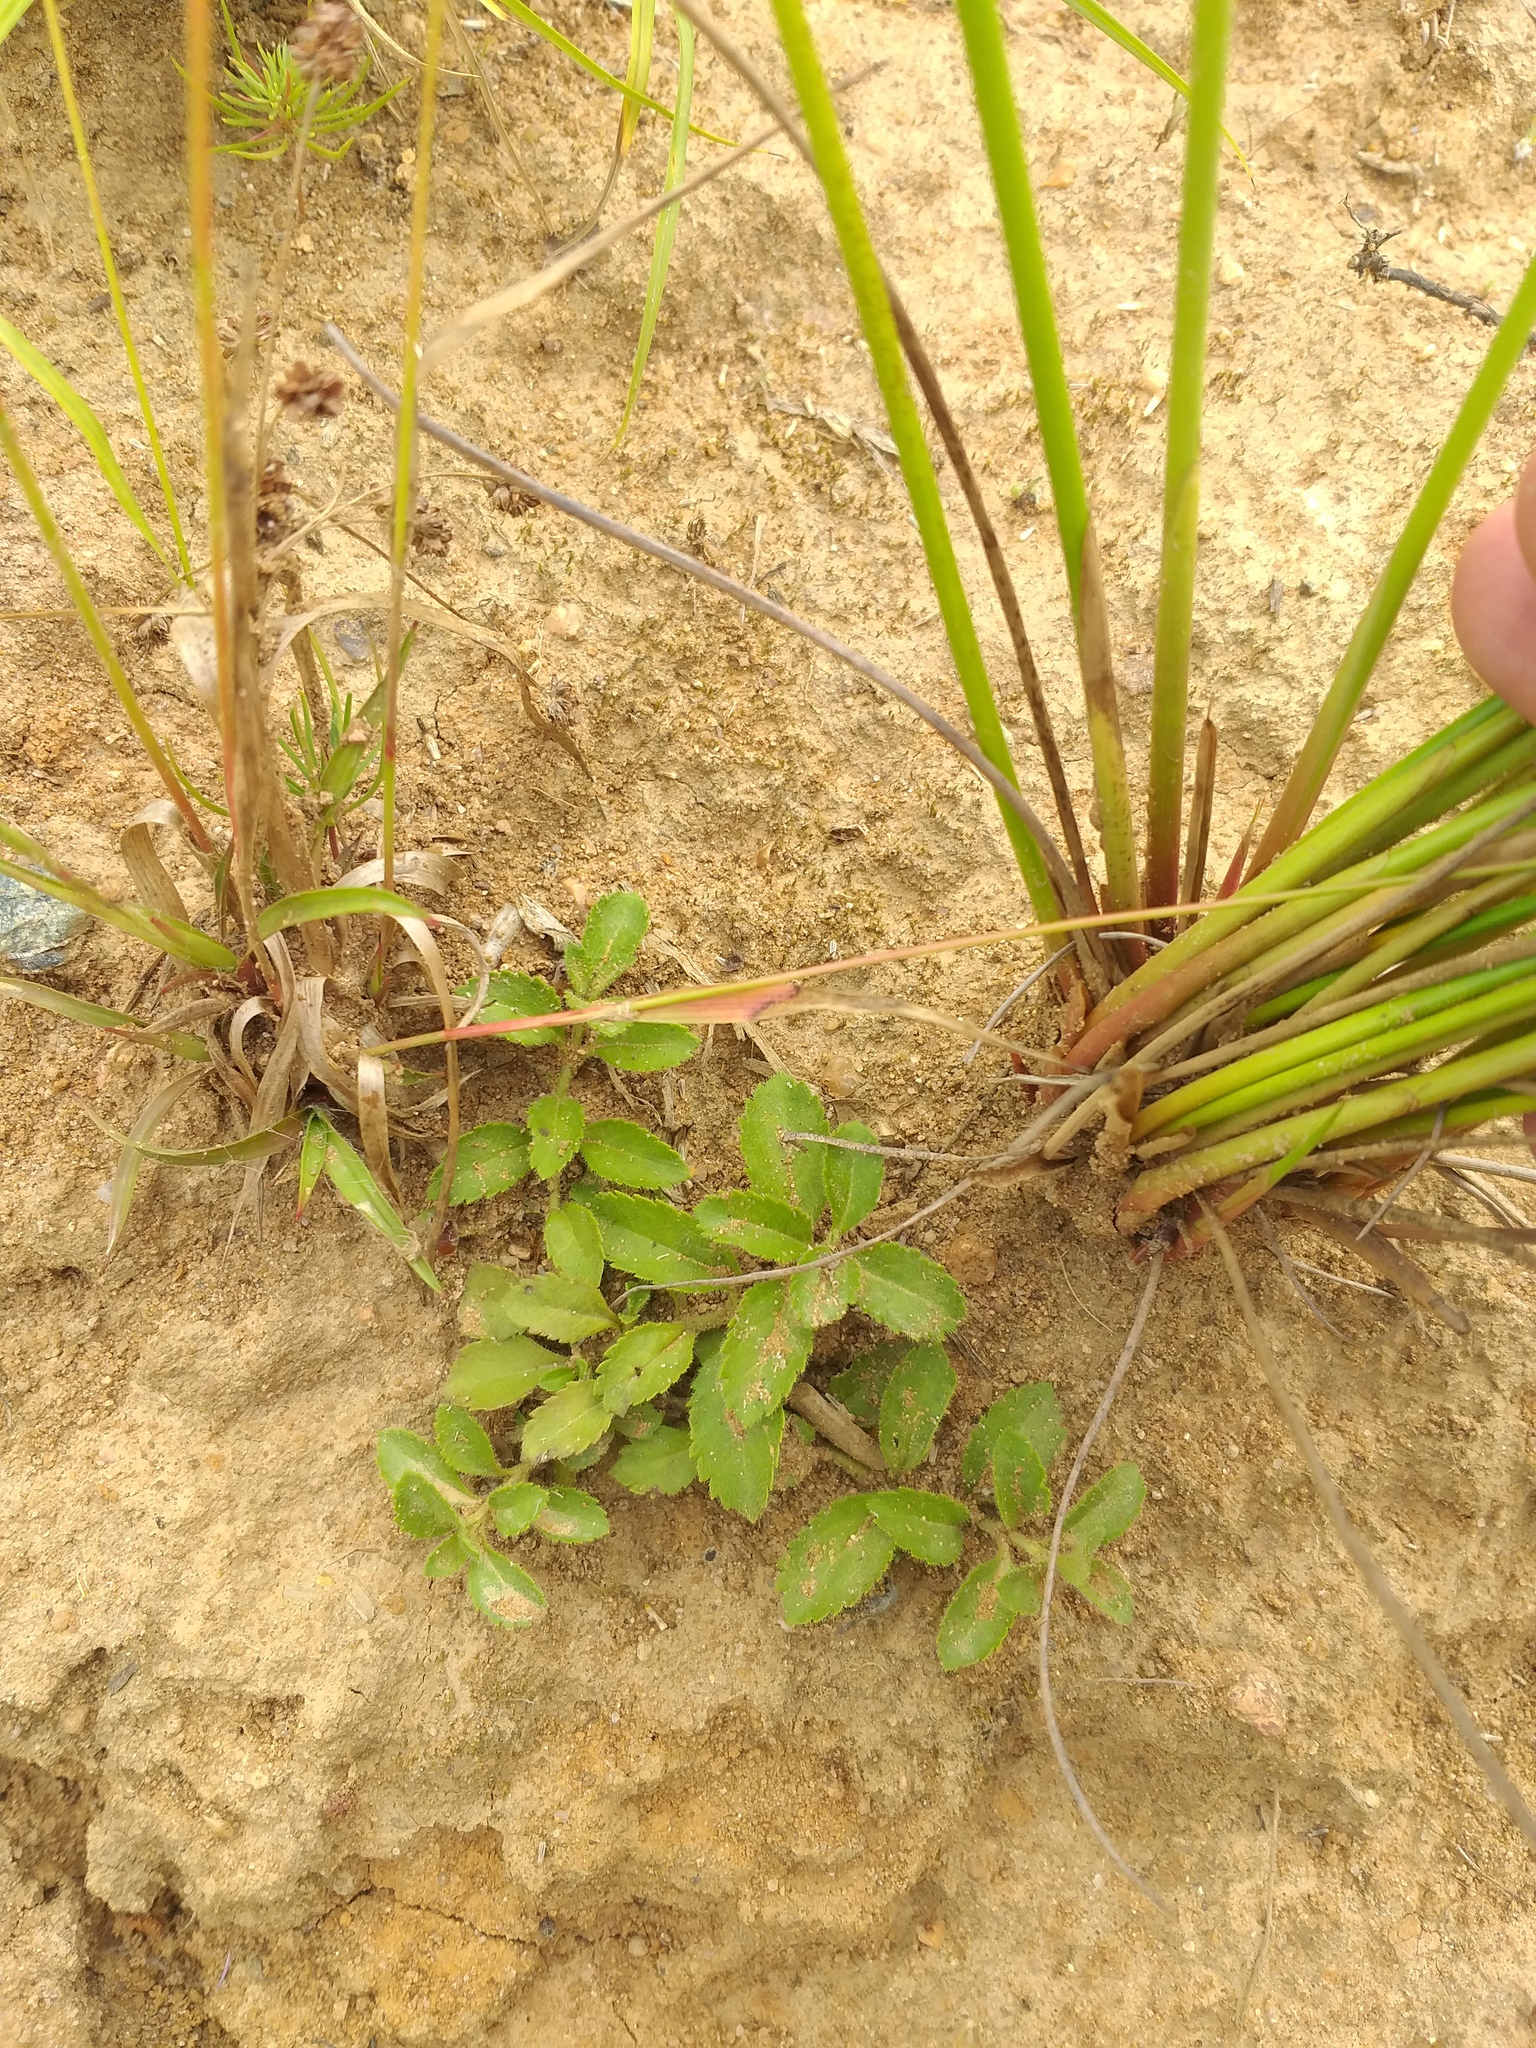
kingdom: Plantae
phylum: Tracheophyta
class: Magnoliopsida
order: Lamiales
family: Plantaginaceae
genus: Veronica
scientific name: Veronica officinalis
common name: Common speedwell
